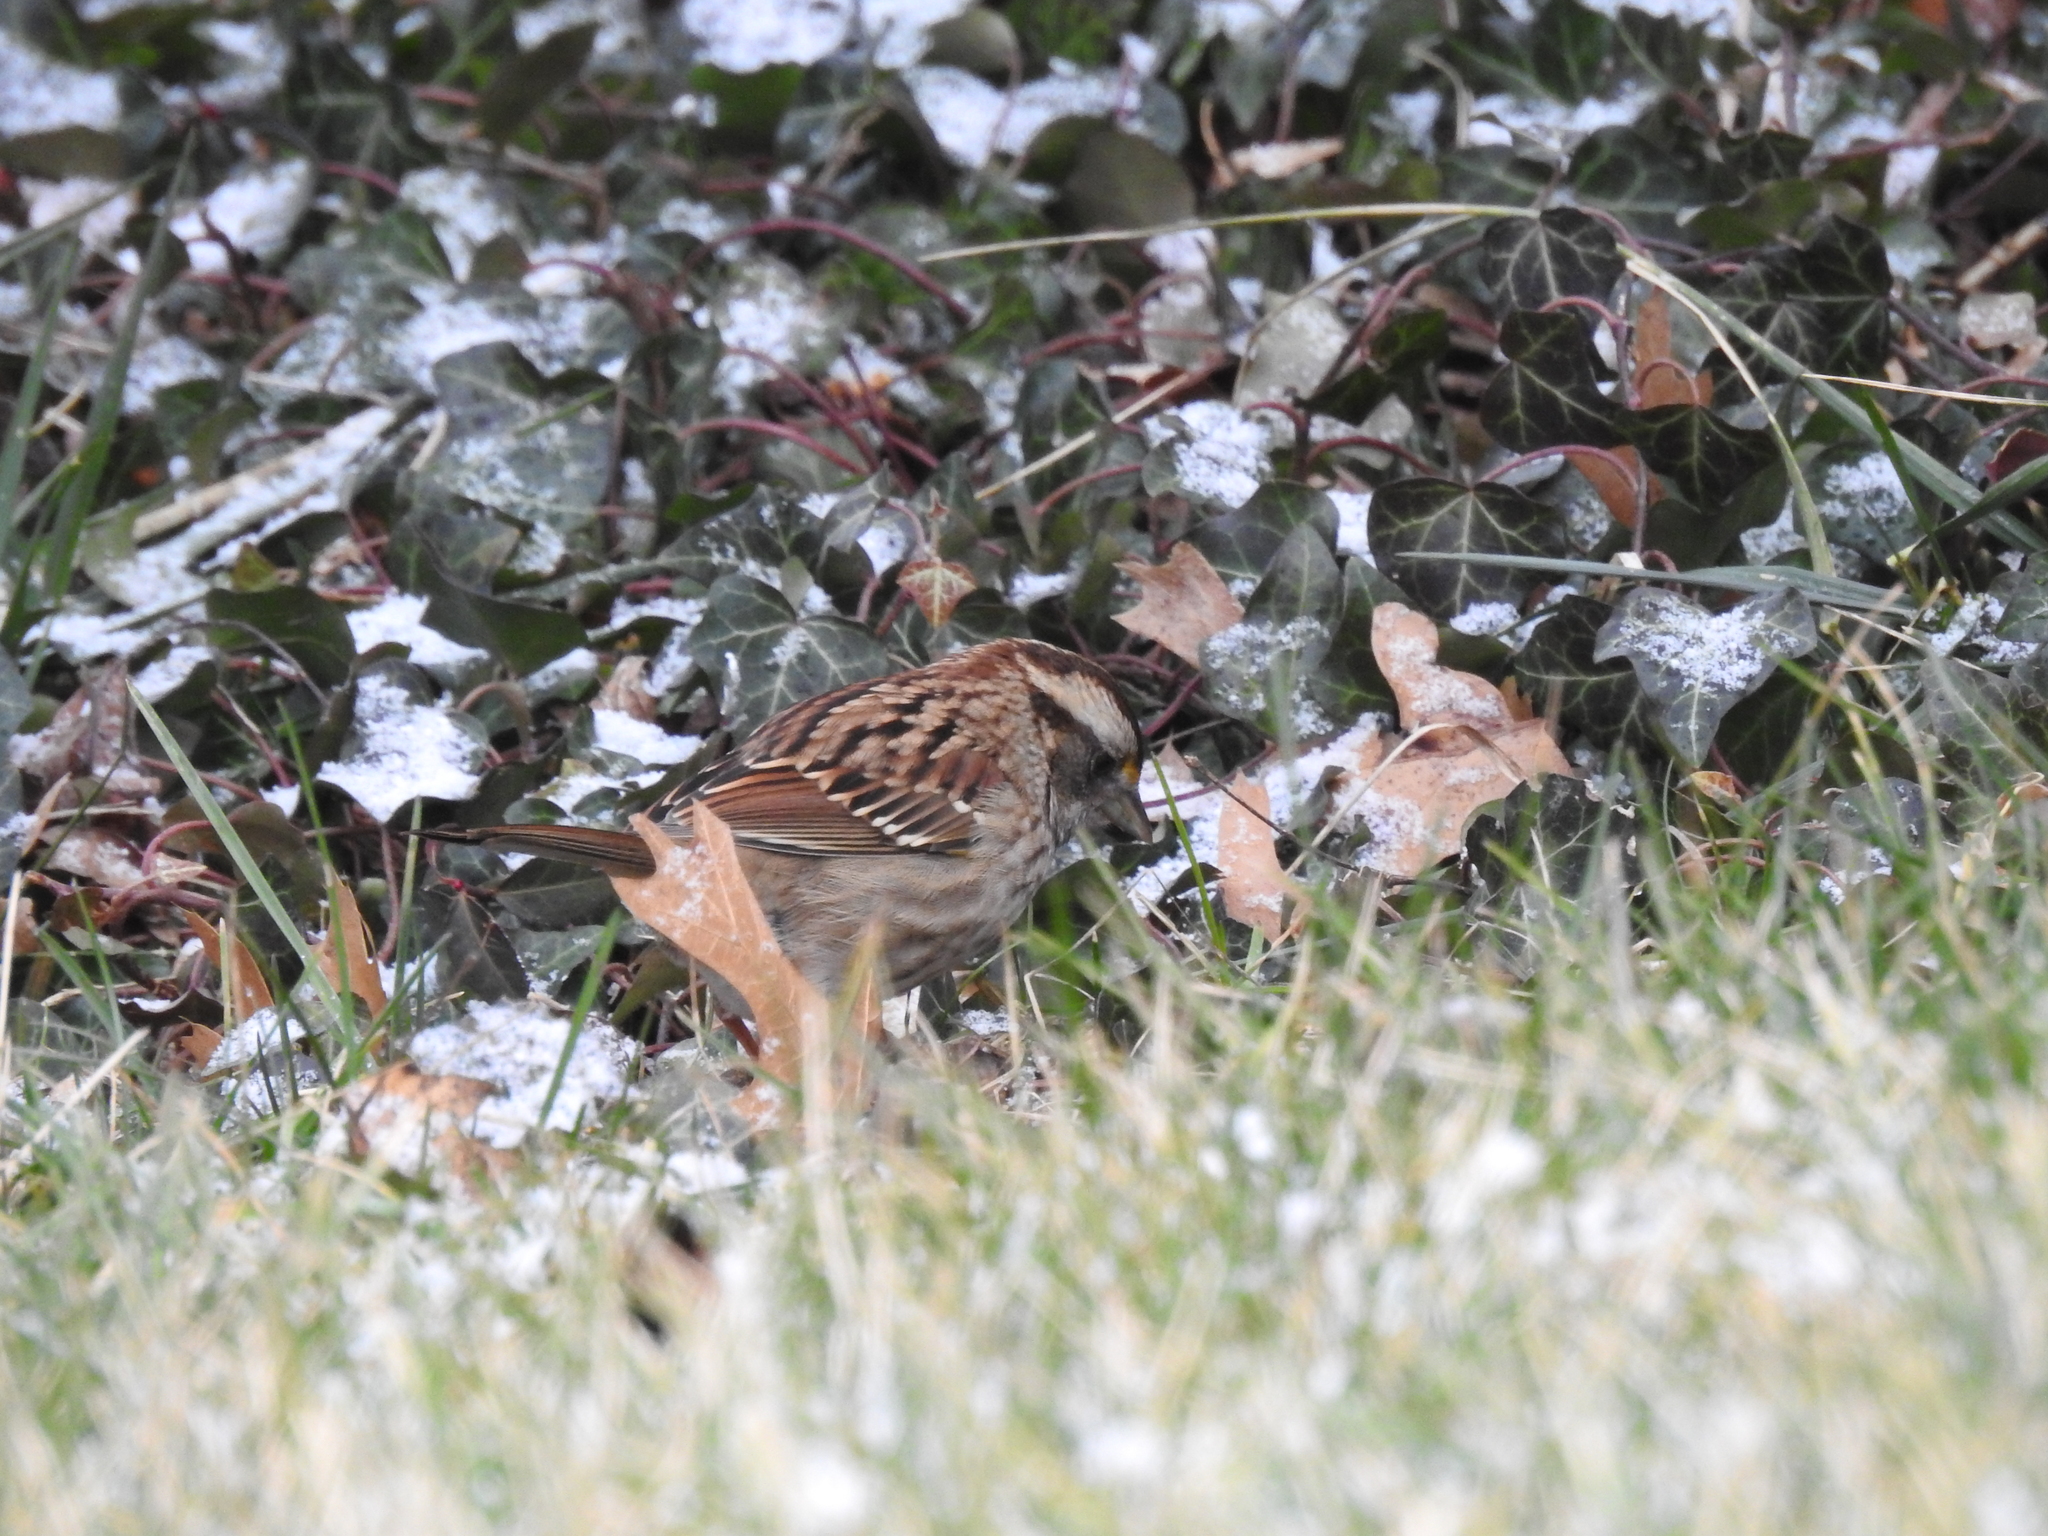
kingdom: Animalia
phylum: Chordata
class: Aves
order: Passeriformes
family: Passerellidae
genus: Zonotrichia
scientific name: Zonotrichia albicollis
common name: White-throated sparrow
